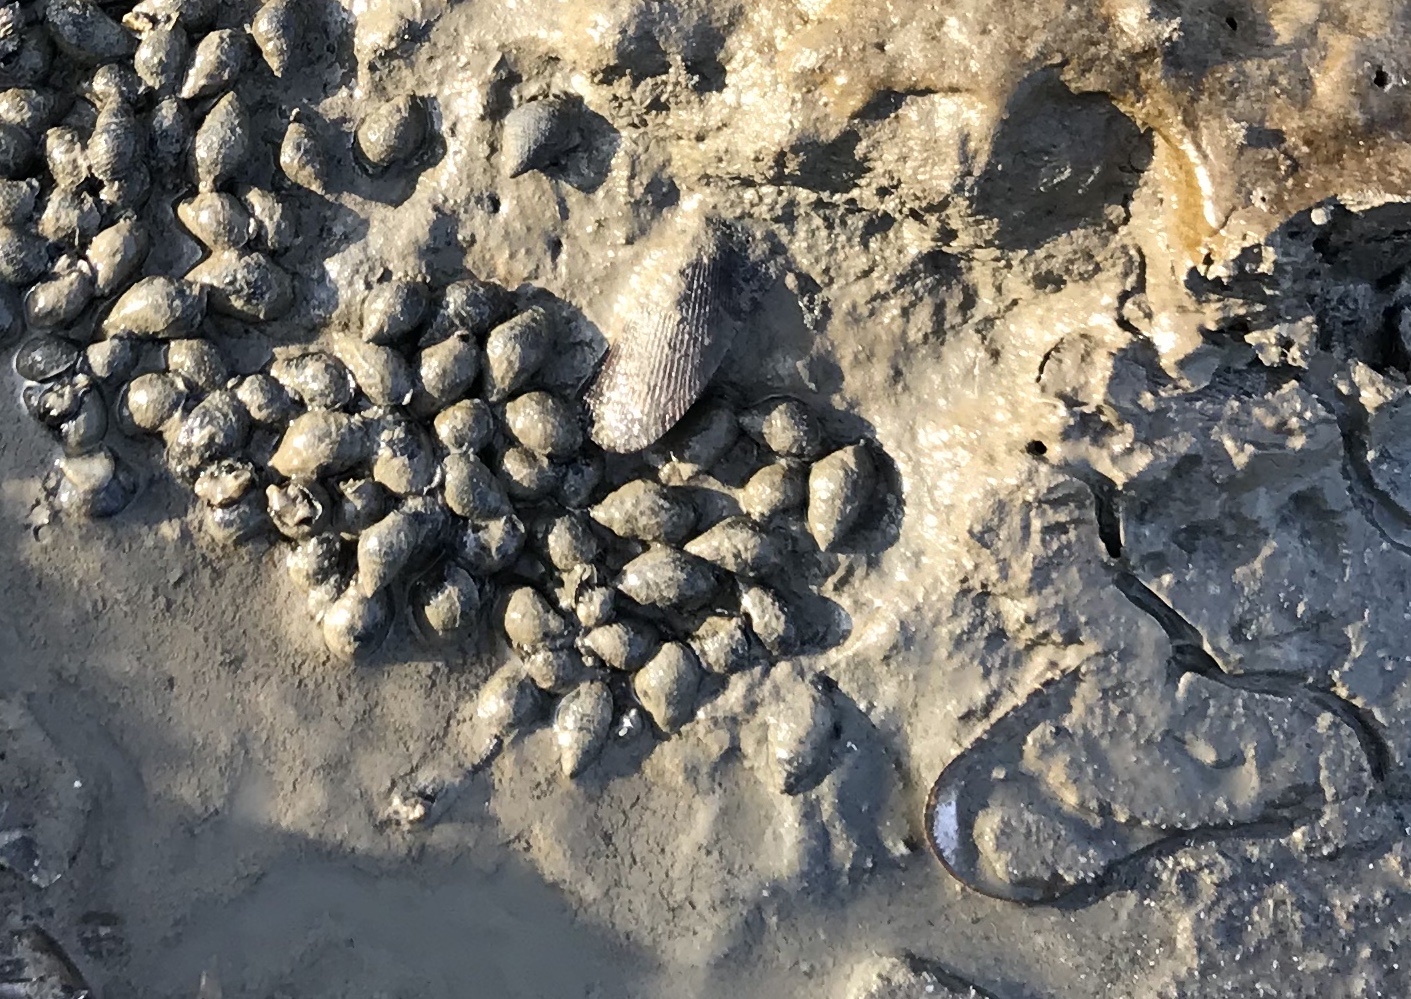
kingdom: Animalia
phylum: Mollusca
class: Bivalvia
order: Mytilida
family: Mytilidae
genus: Geukensia
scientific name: Geukensia demissa
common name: Ribbed mussel
